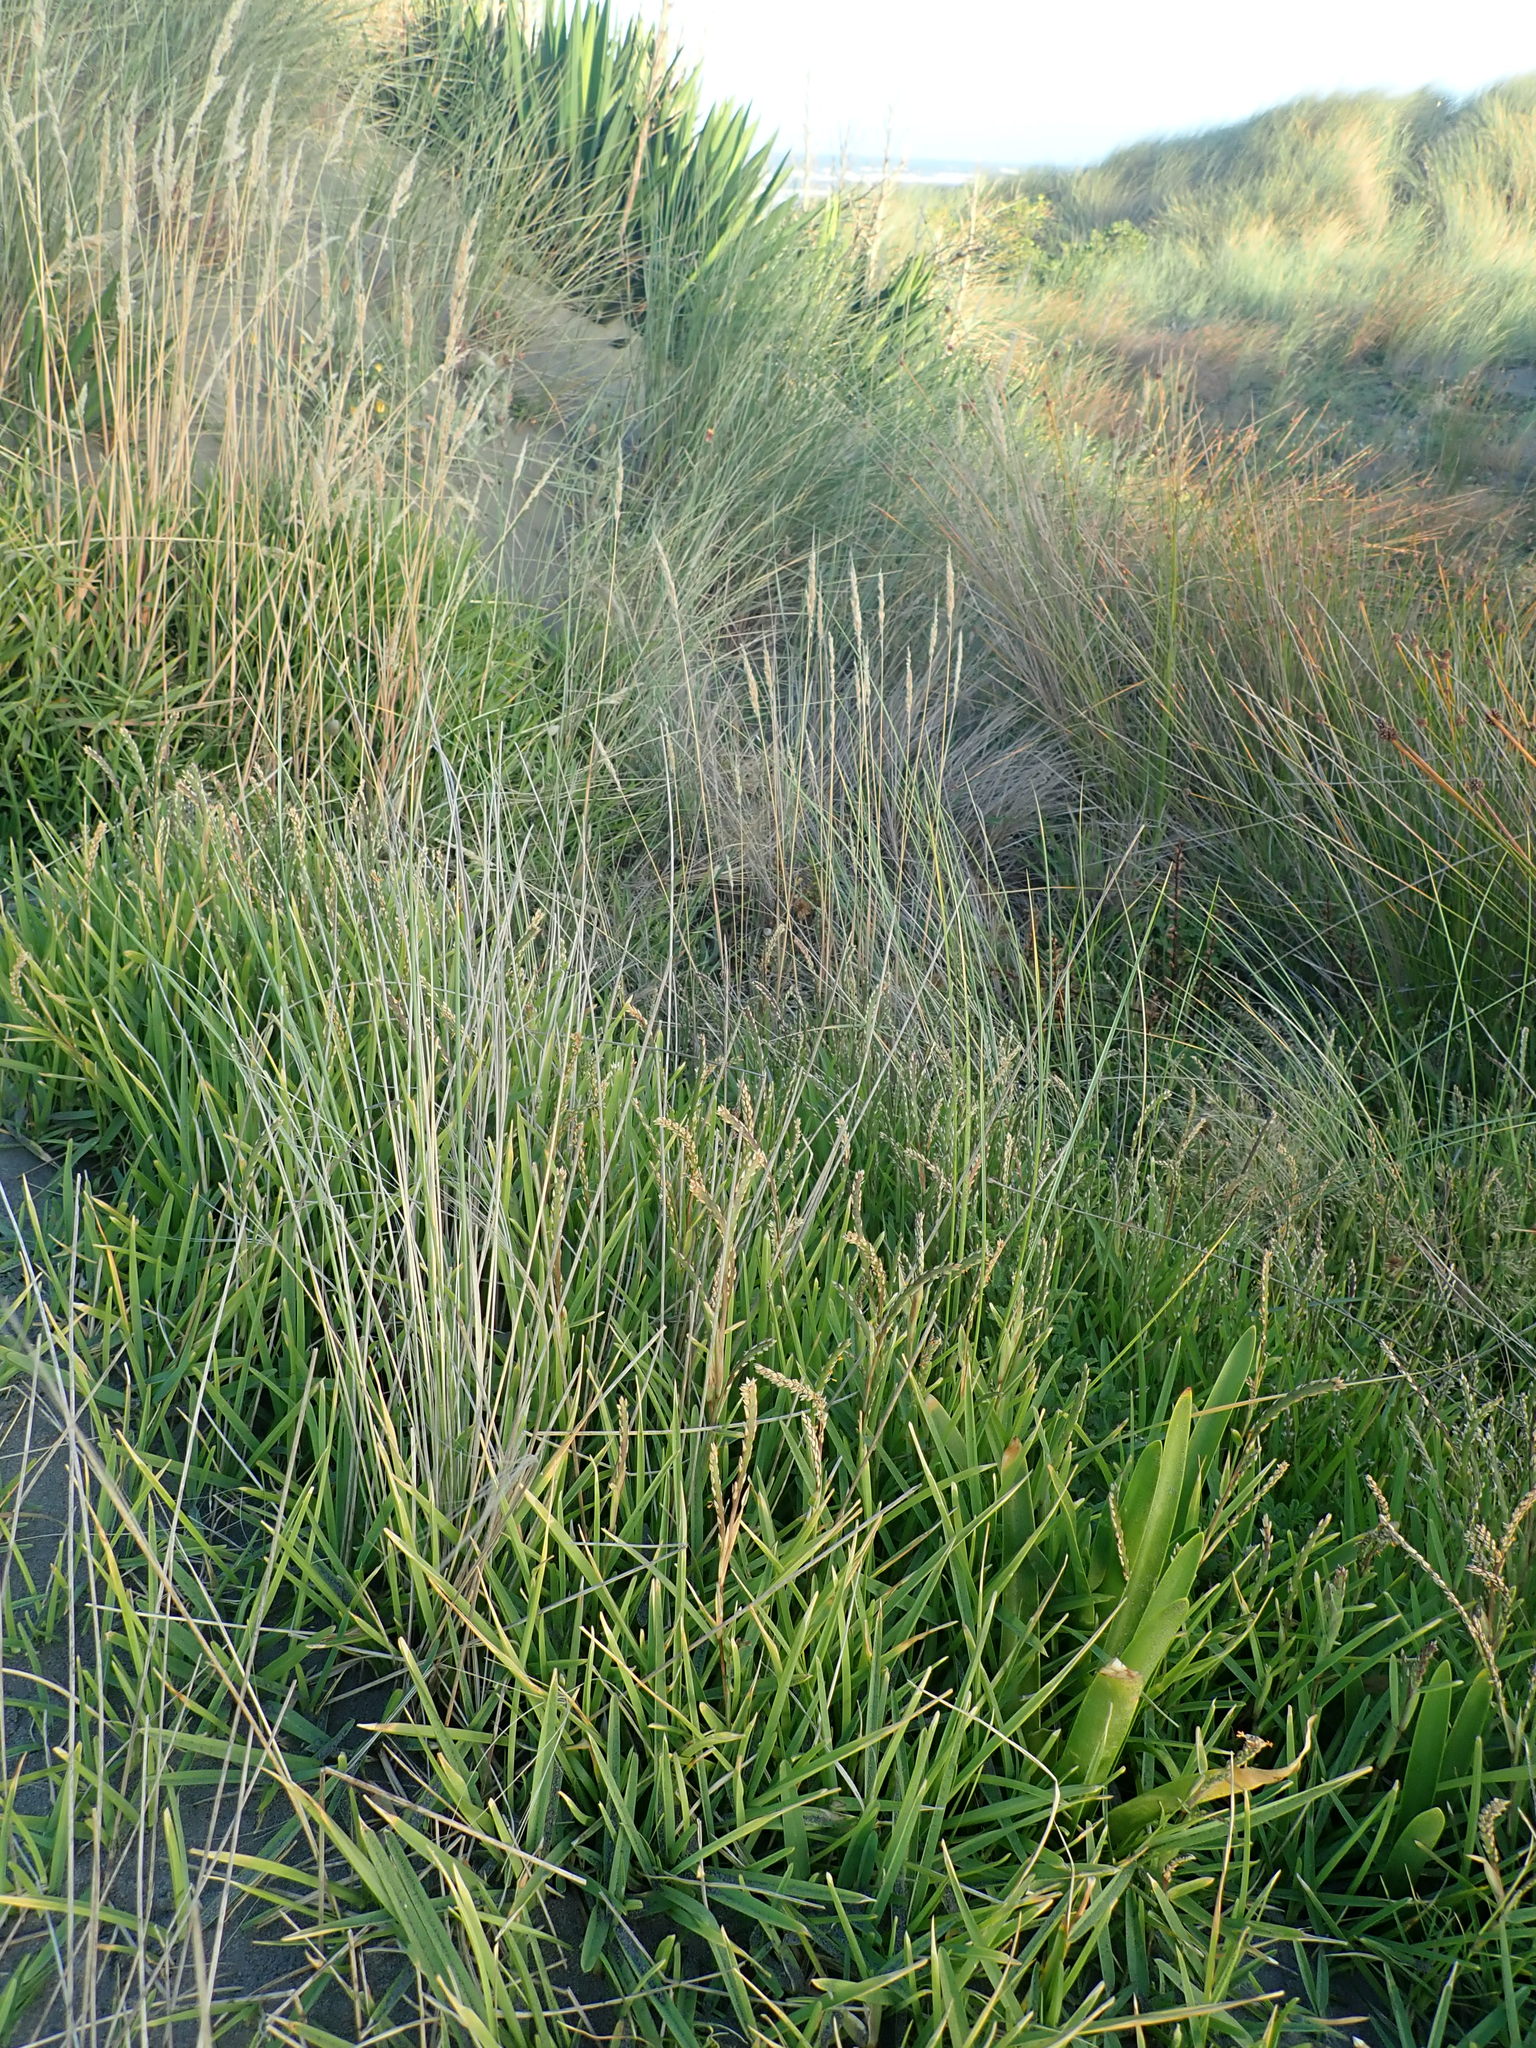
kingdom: Plantae
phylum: Tracheophyta
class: Liliopsida
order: Poales
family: Poaceae
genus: Stenotaphrum
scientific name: Stenotaphrum secundatum
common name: St. augustine grass
